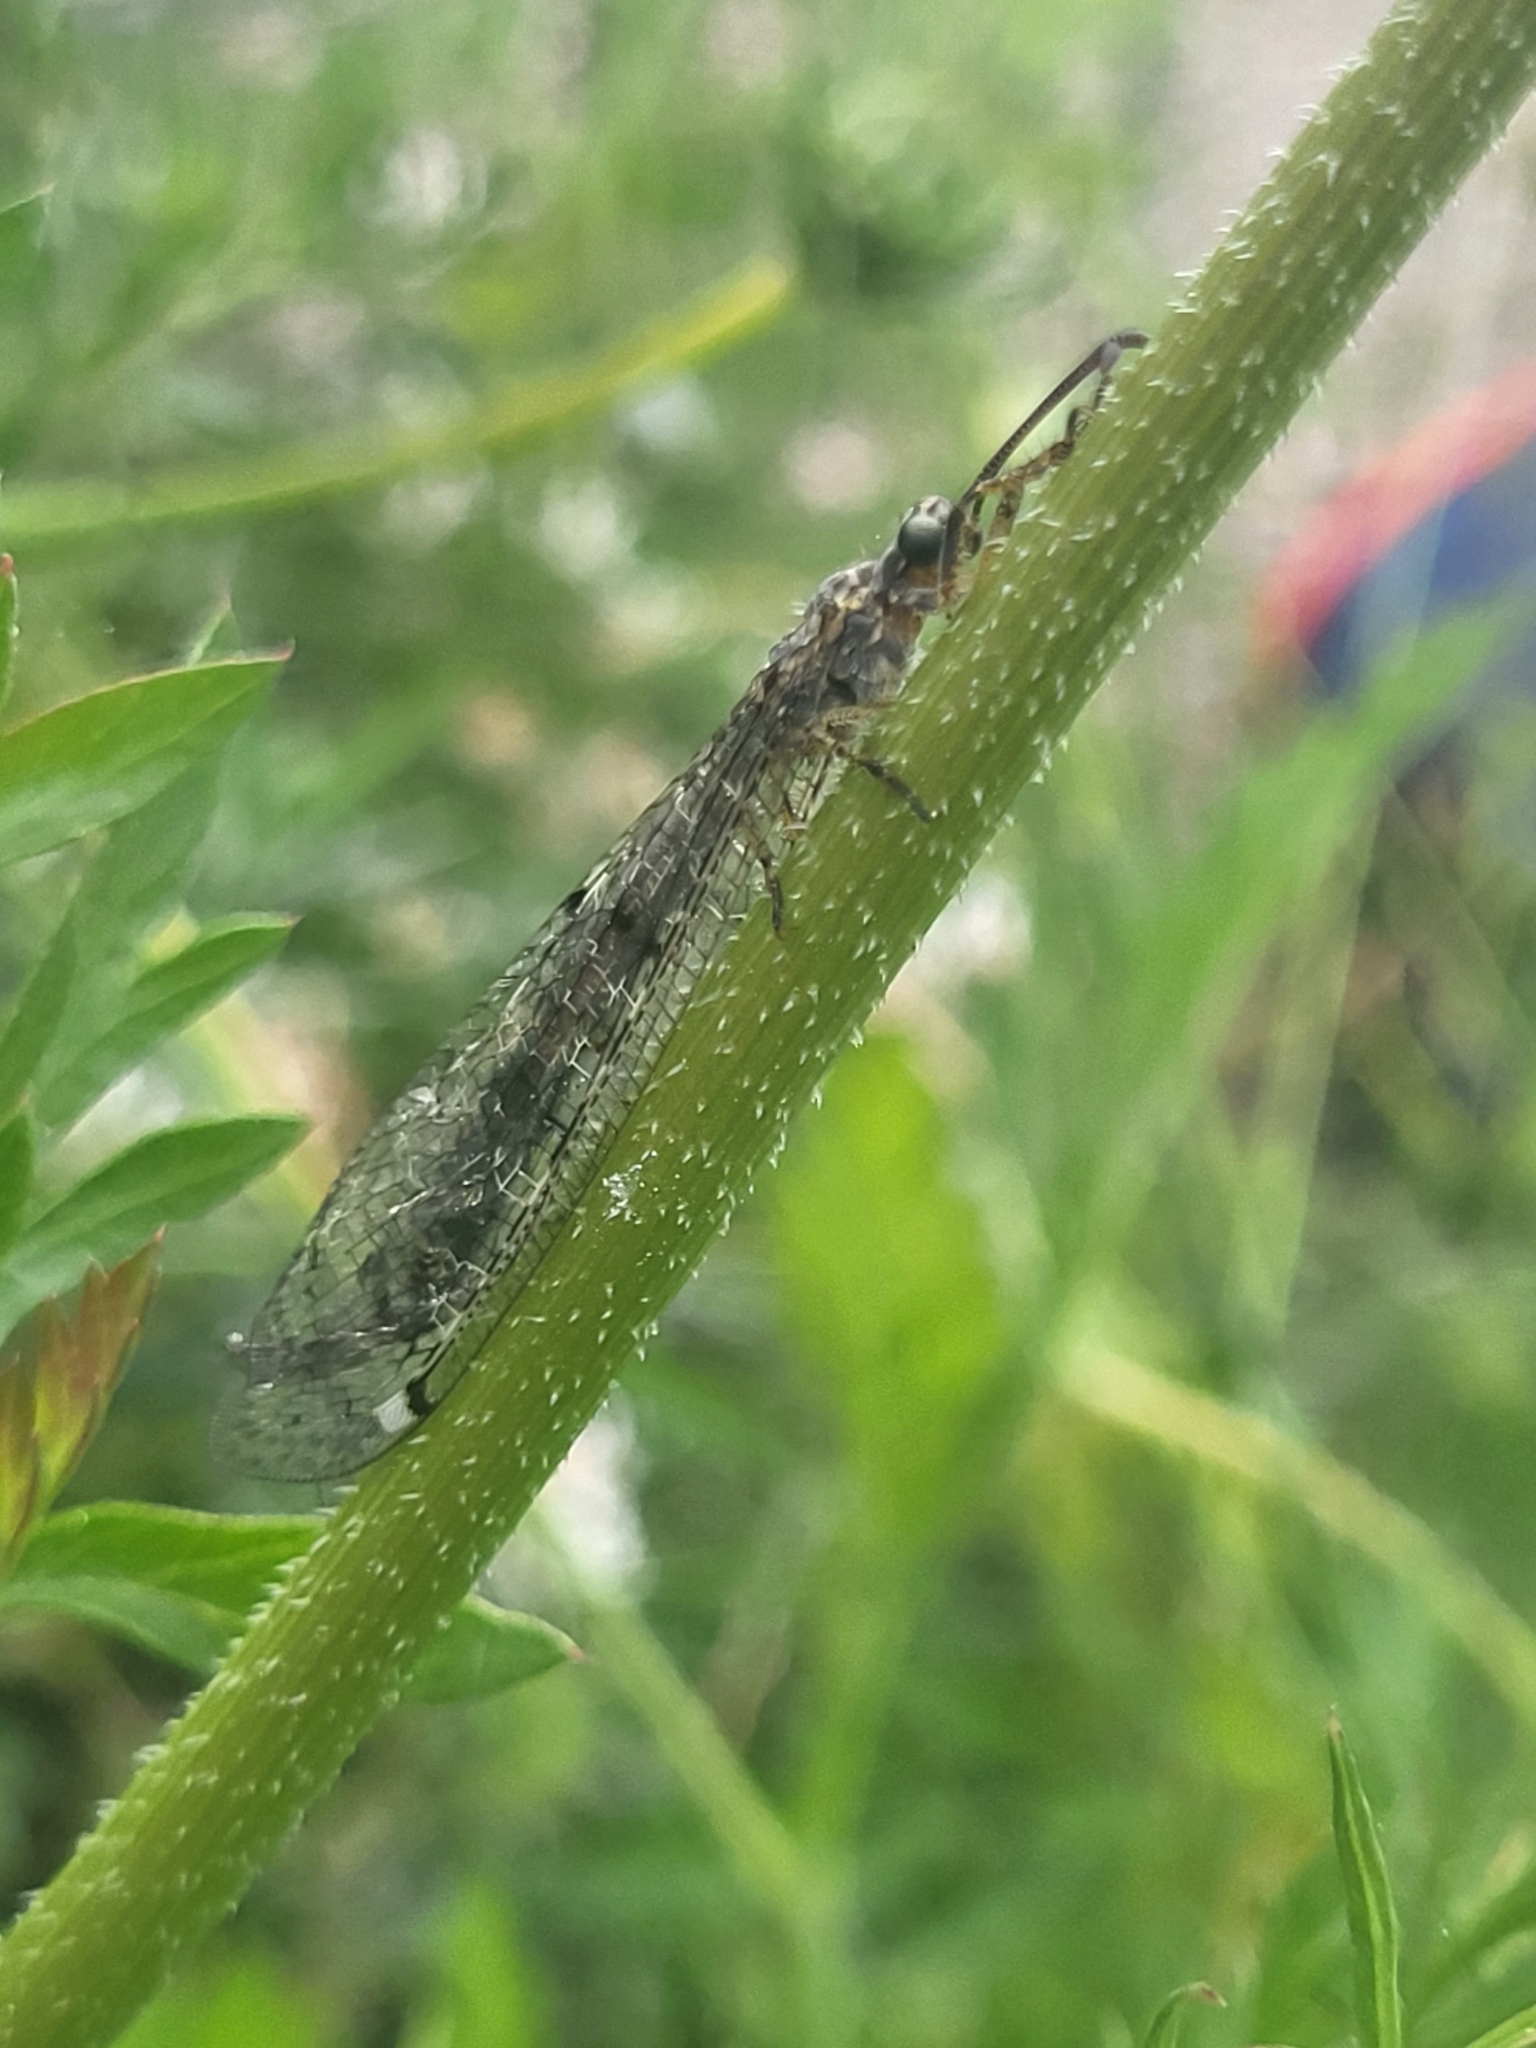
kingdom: Animalia
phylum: Arthropoda
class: Insecta
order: Neuroptera
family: Myrmeleontidae
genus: Distoleon
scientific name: Distoleon tetragrammicus
